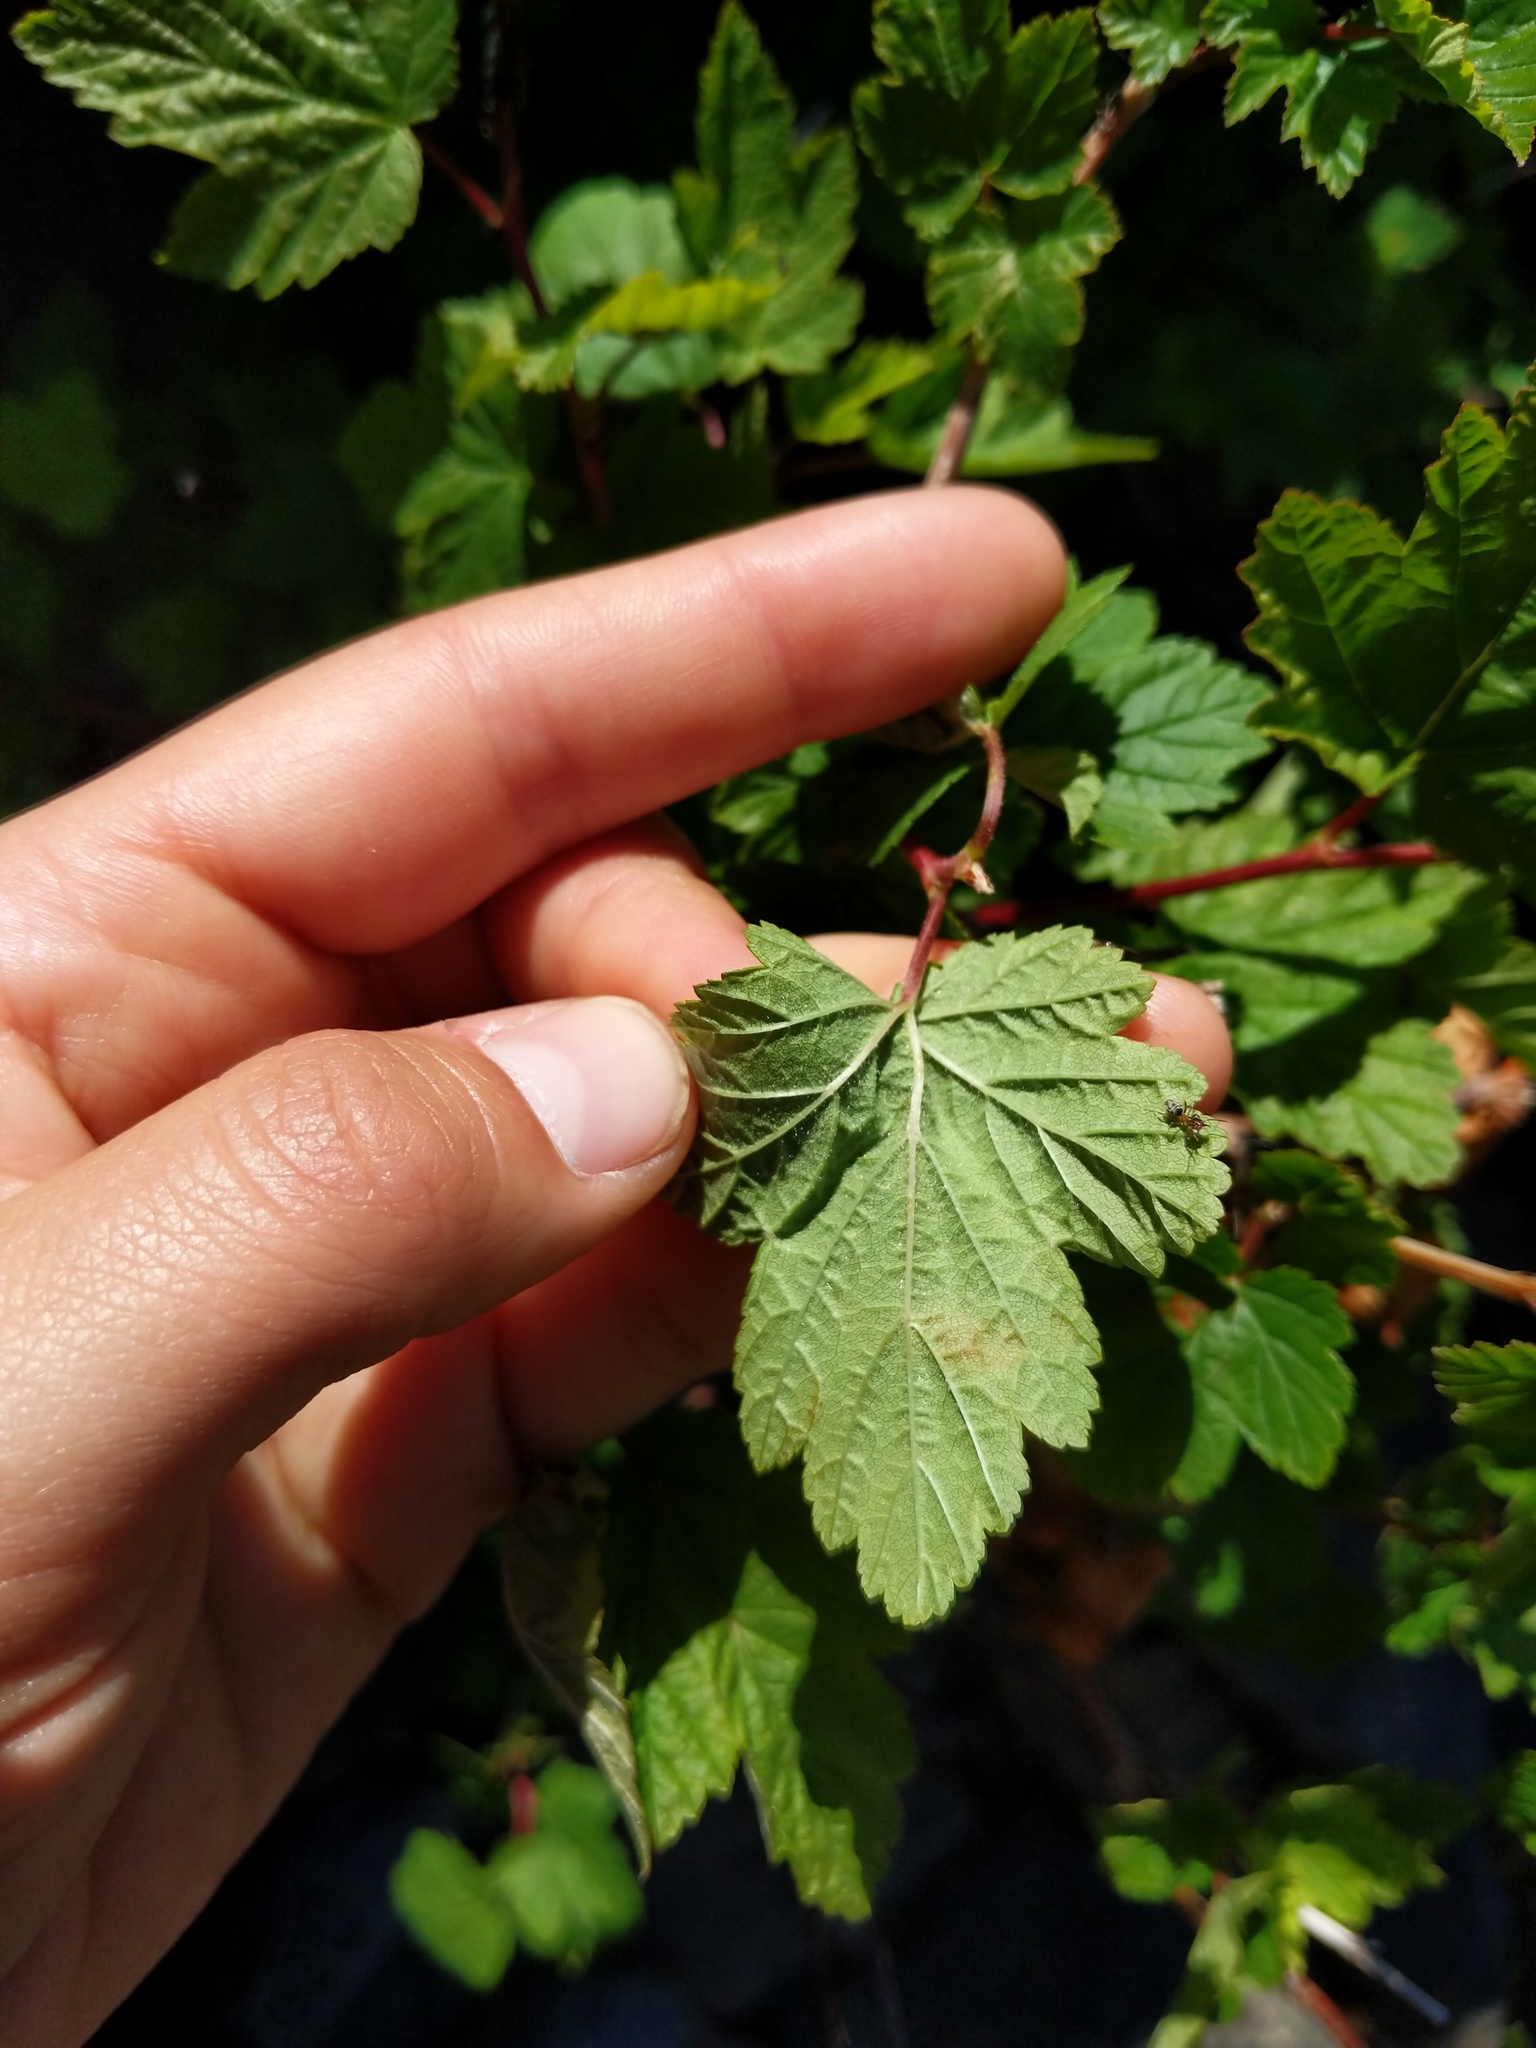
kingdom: Plantae
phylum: Tracheophyta
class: Magnoliopsida
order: Rosales
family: Rosaceae
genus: Physocarpus
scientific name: Physocarpus capitatus
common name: Pacific ninebark
